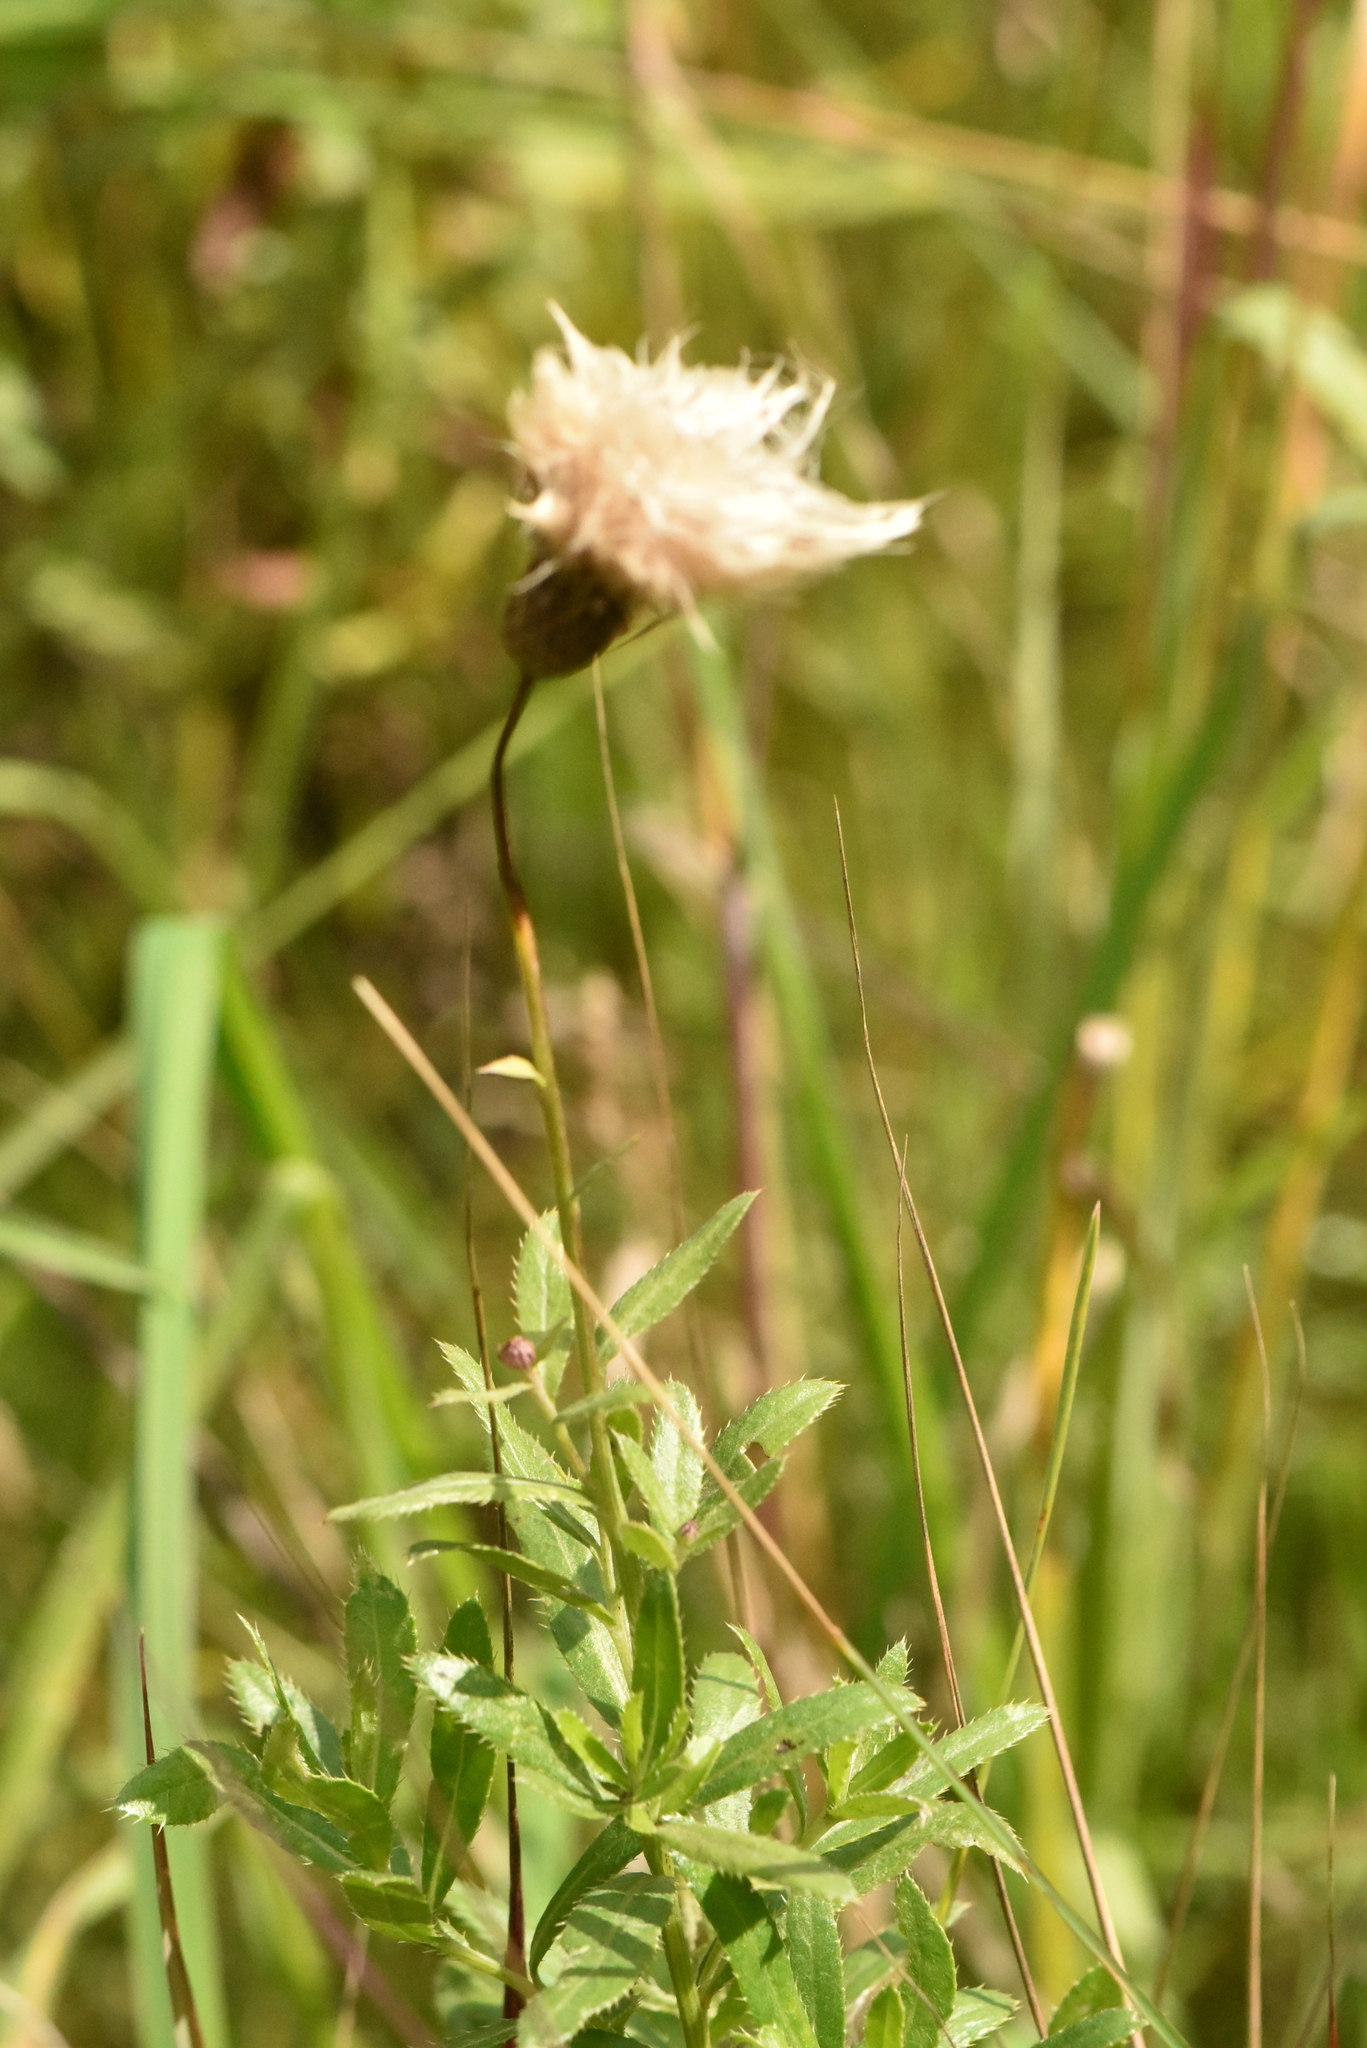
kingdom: Plantae
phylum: Tracheophyta
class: Magnoliopsida
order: Asterales
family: Asteraceae
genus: Cirsium
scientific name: Cirsium arvense
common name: Creeping thistle
